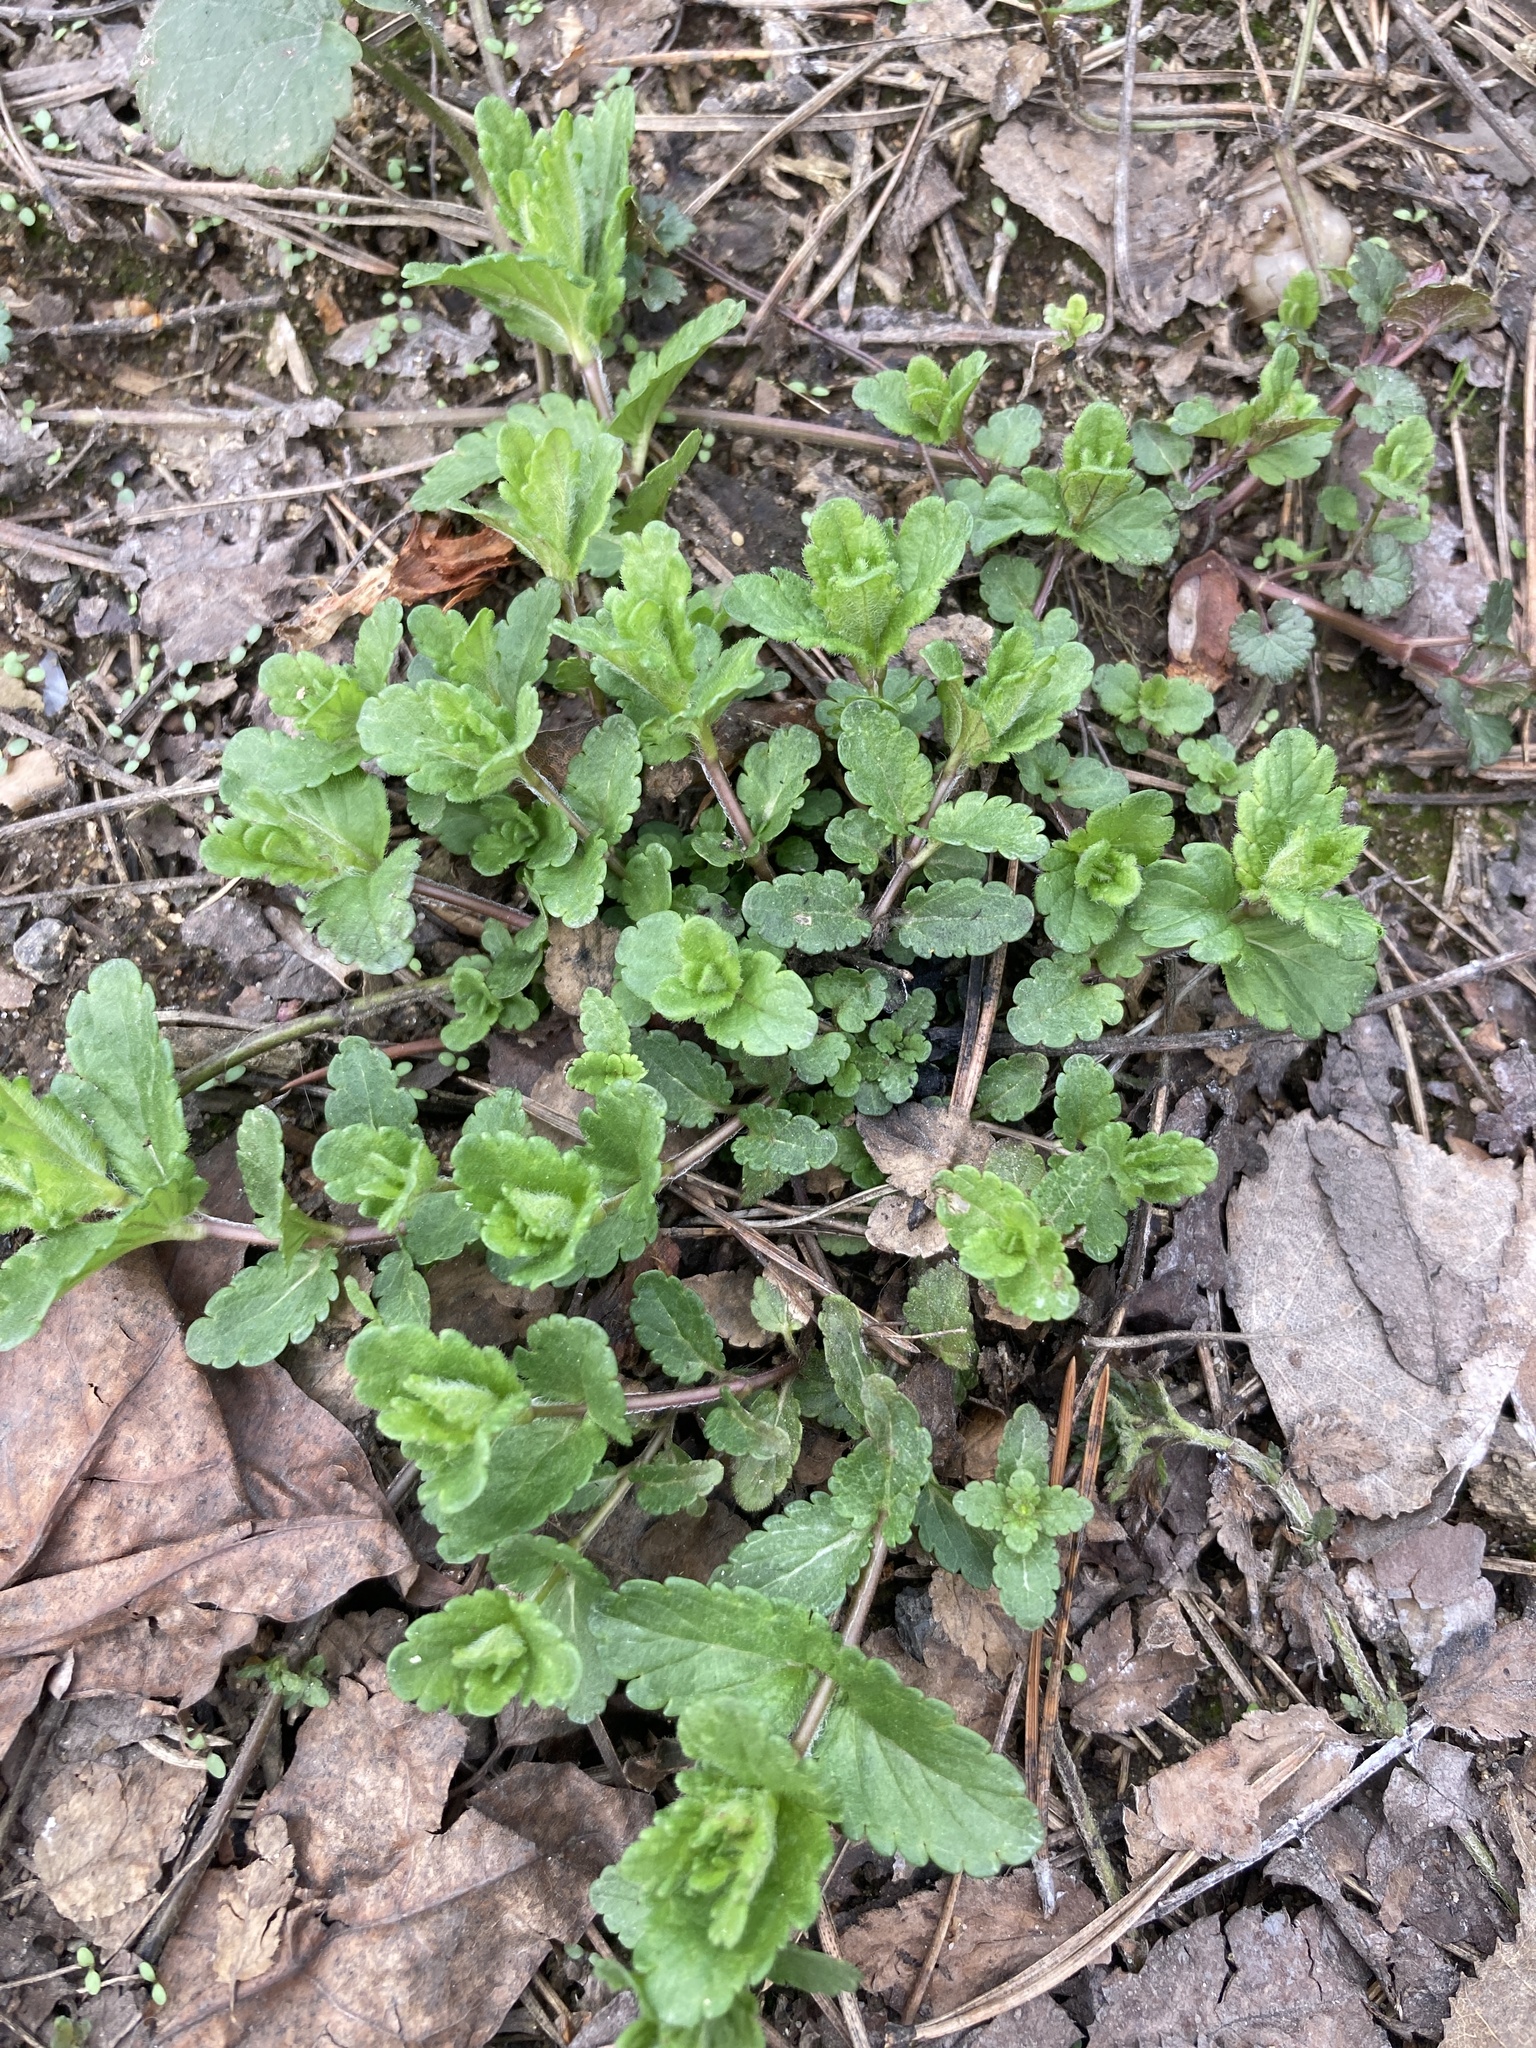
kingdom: Plantae
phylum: Tracheophyta
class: Magnoliopsida
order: Lamiales
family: Plantaginaceae
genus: Veronica
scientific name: Veronica chamaedrys
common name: Germander speedwell
